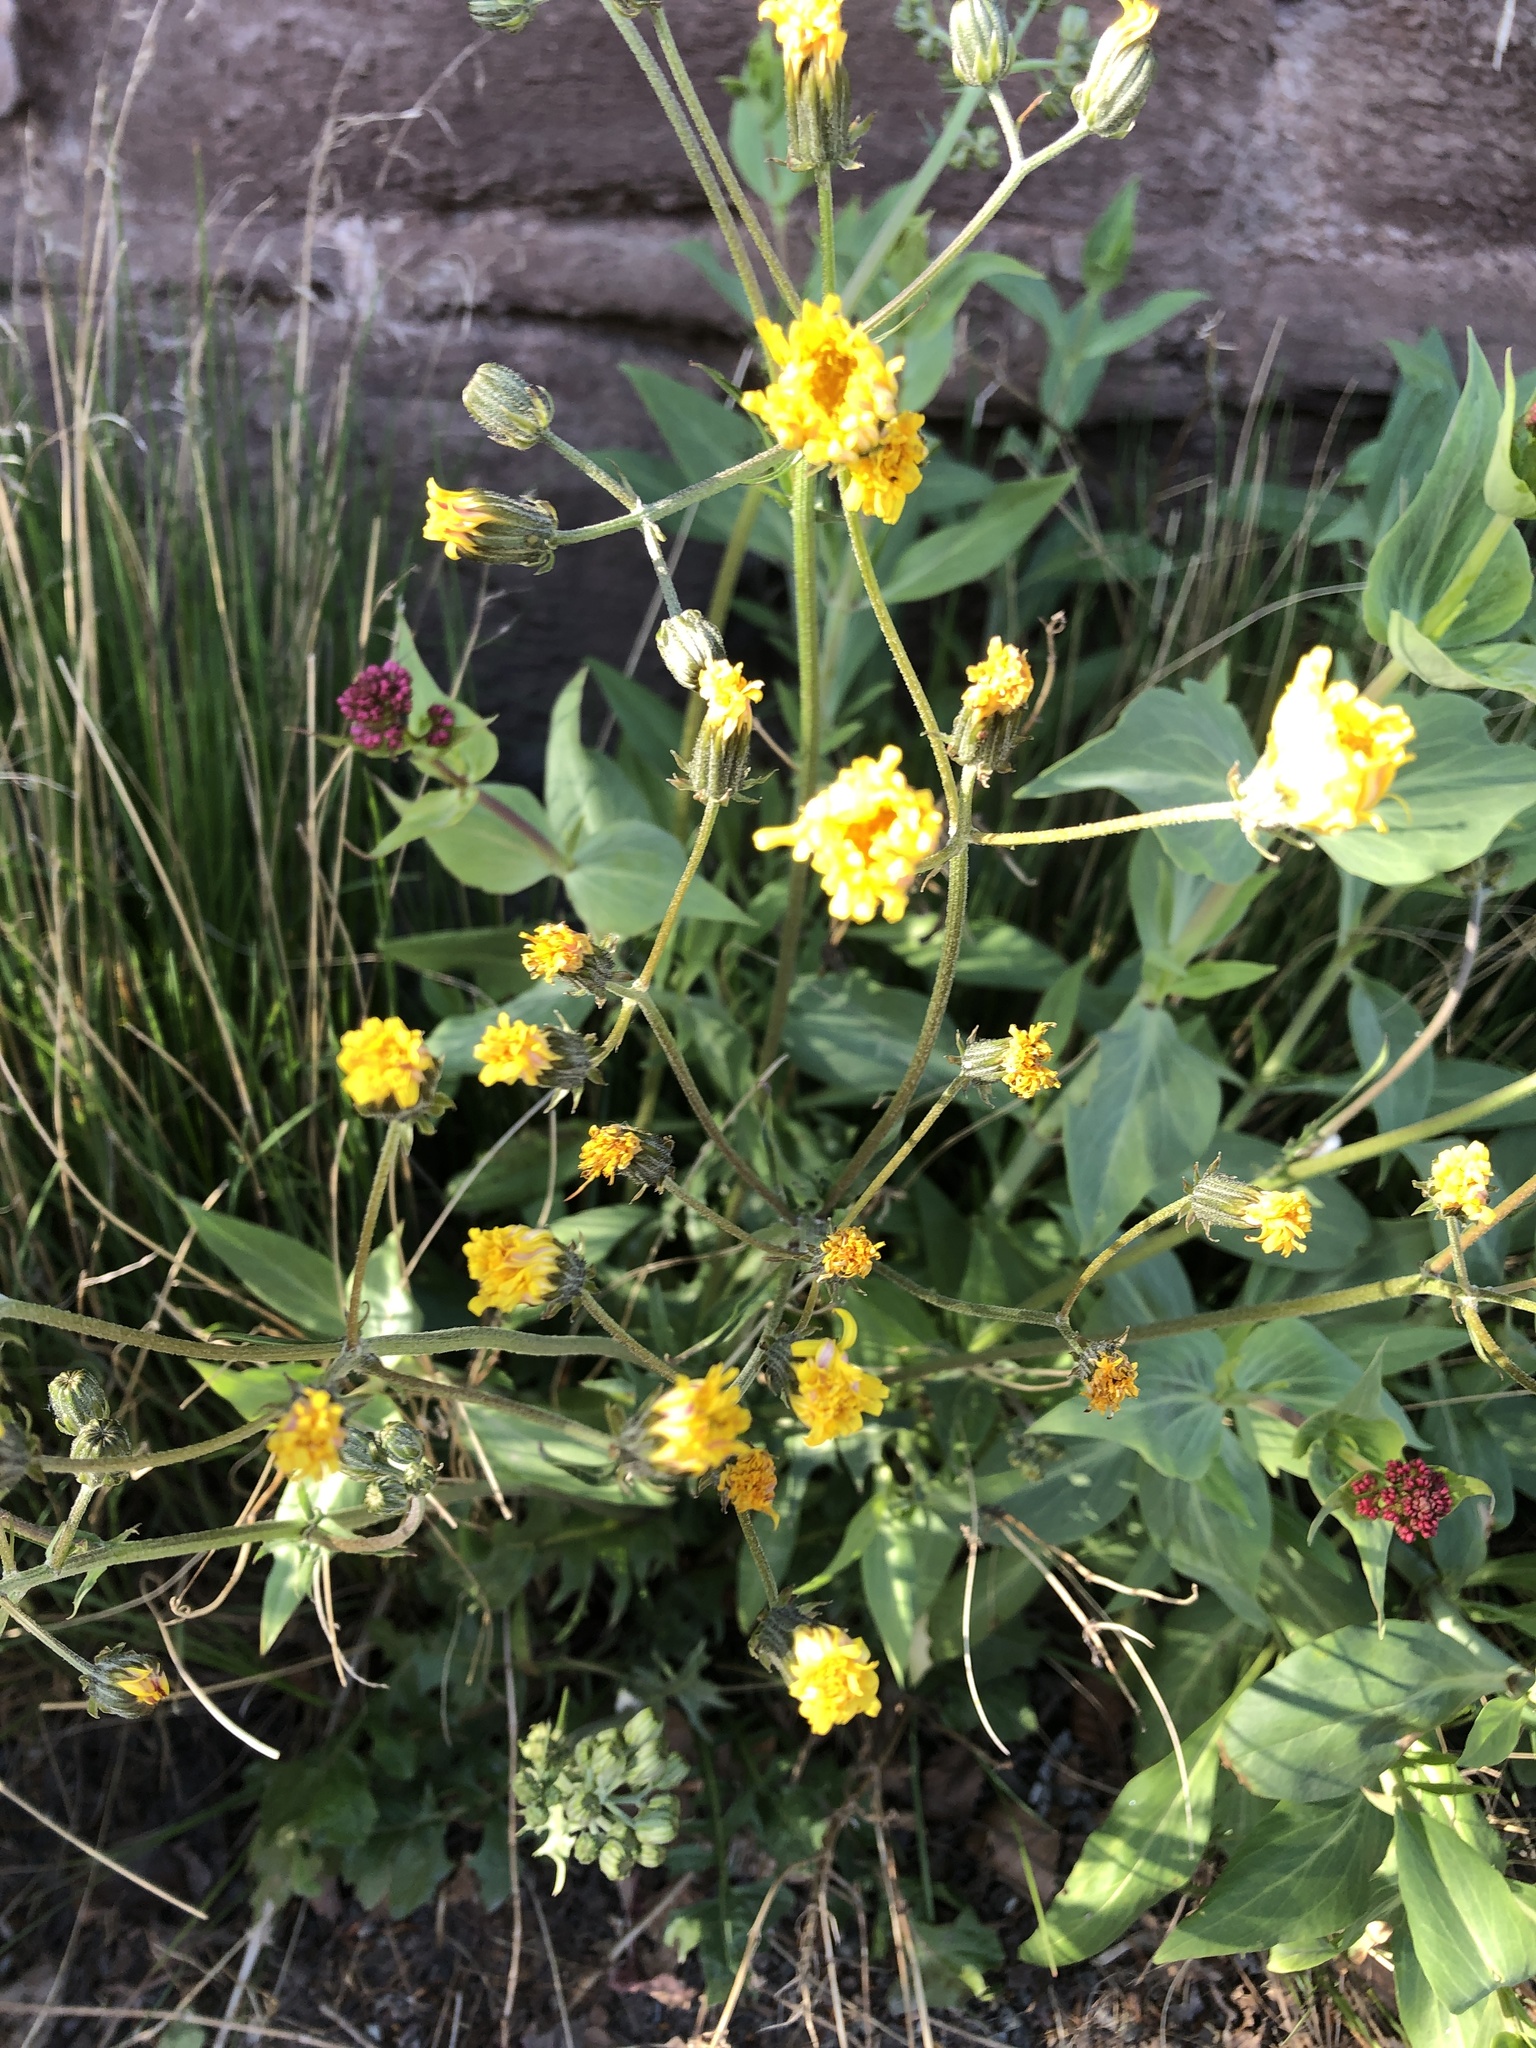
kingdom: Plantae
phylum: Tracheophyta
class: Magnoliopsida
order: Asterales
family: Asteraceae
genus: Crepis
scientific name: Crepis vesicaria
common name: Beaked hawksbeard
